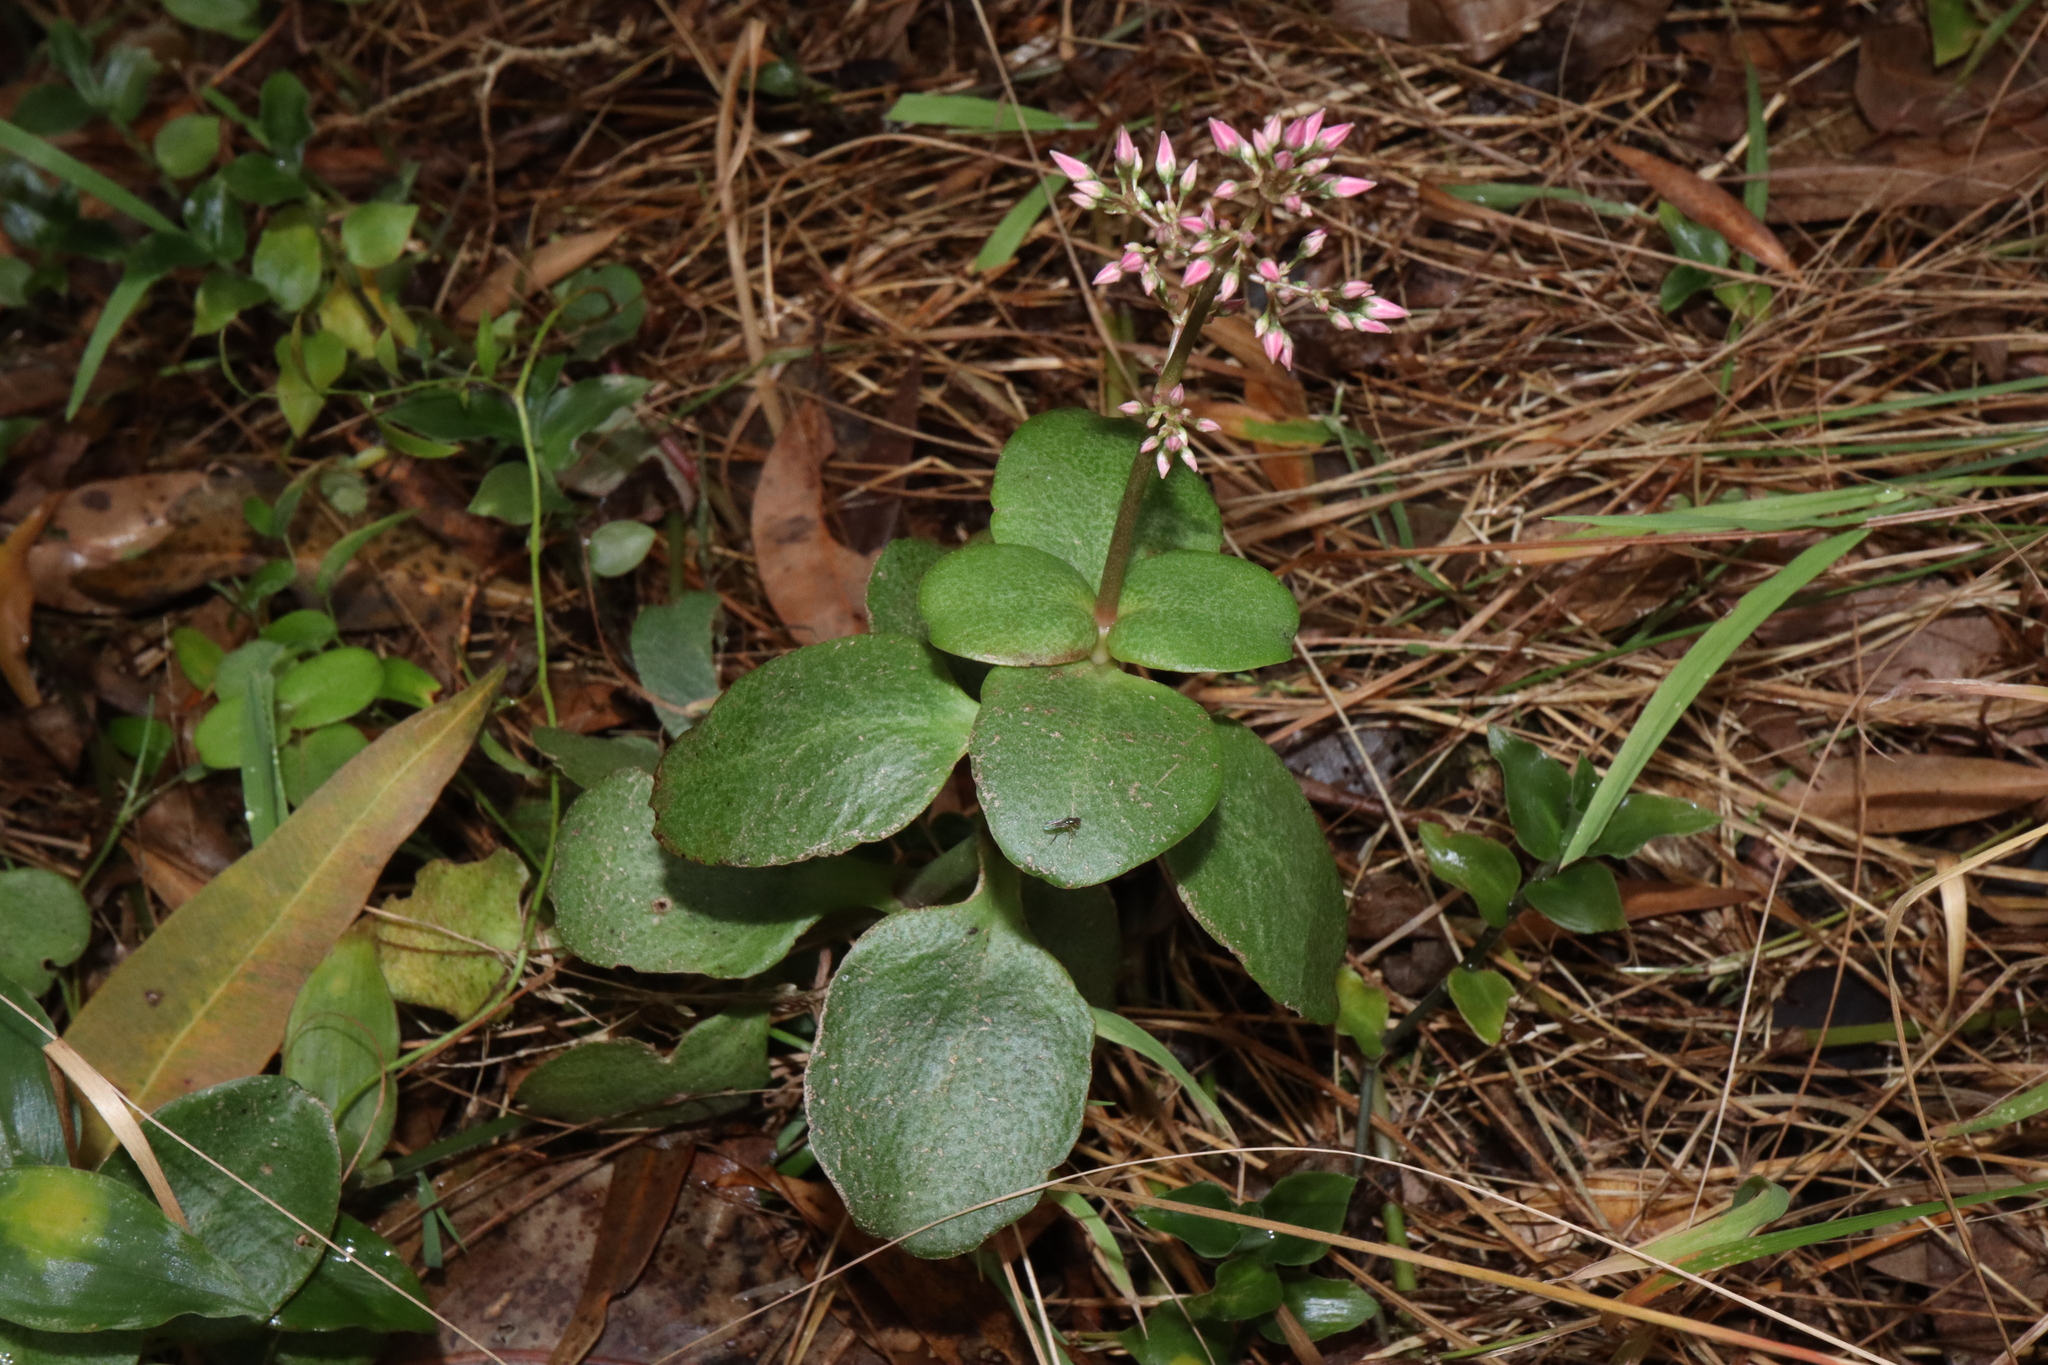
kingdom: Plantae
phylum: Tracheophyta
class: Magnoliopsida
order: Saxifragales
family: Crassulaceae
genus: Crassula
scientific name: Crassula multicava
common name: Cape province pygmyweed
